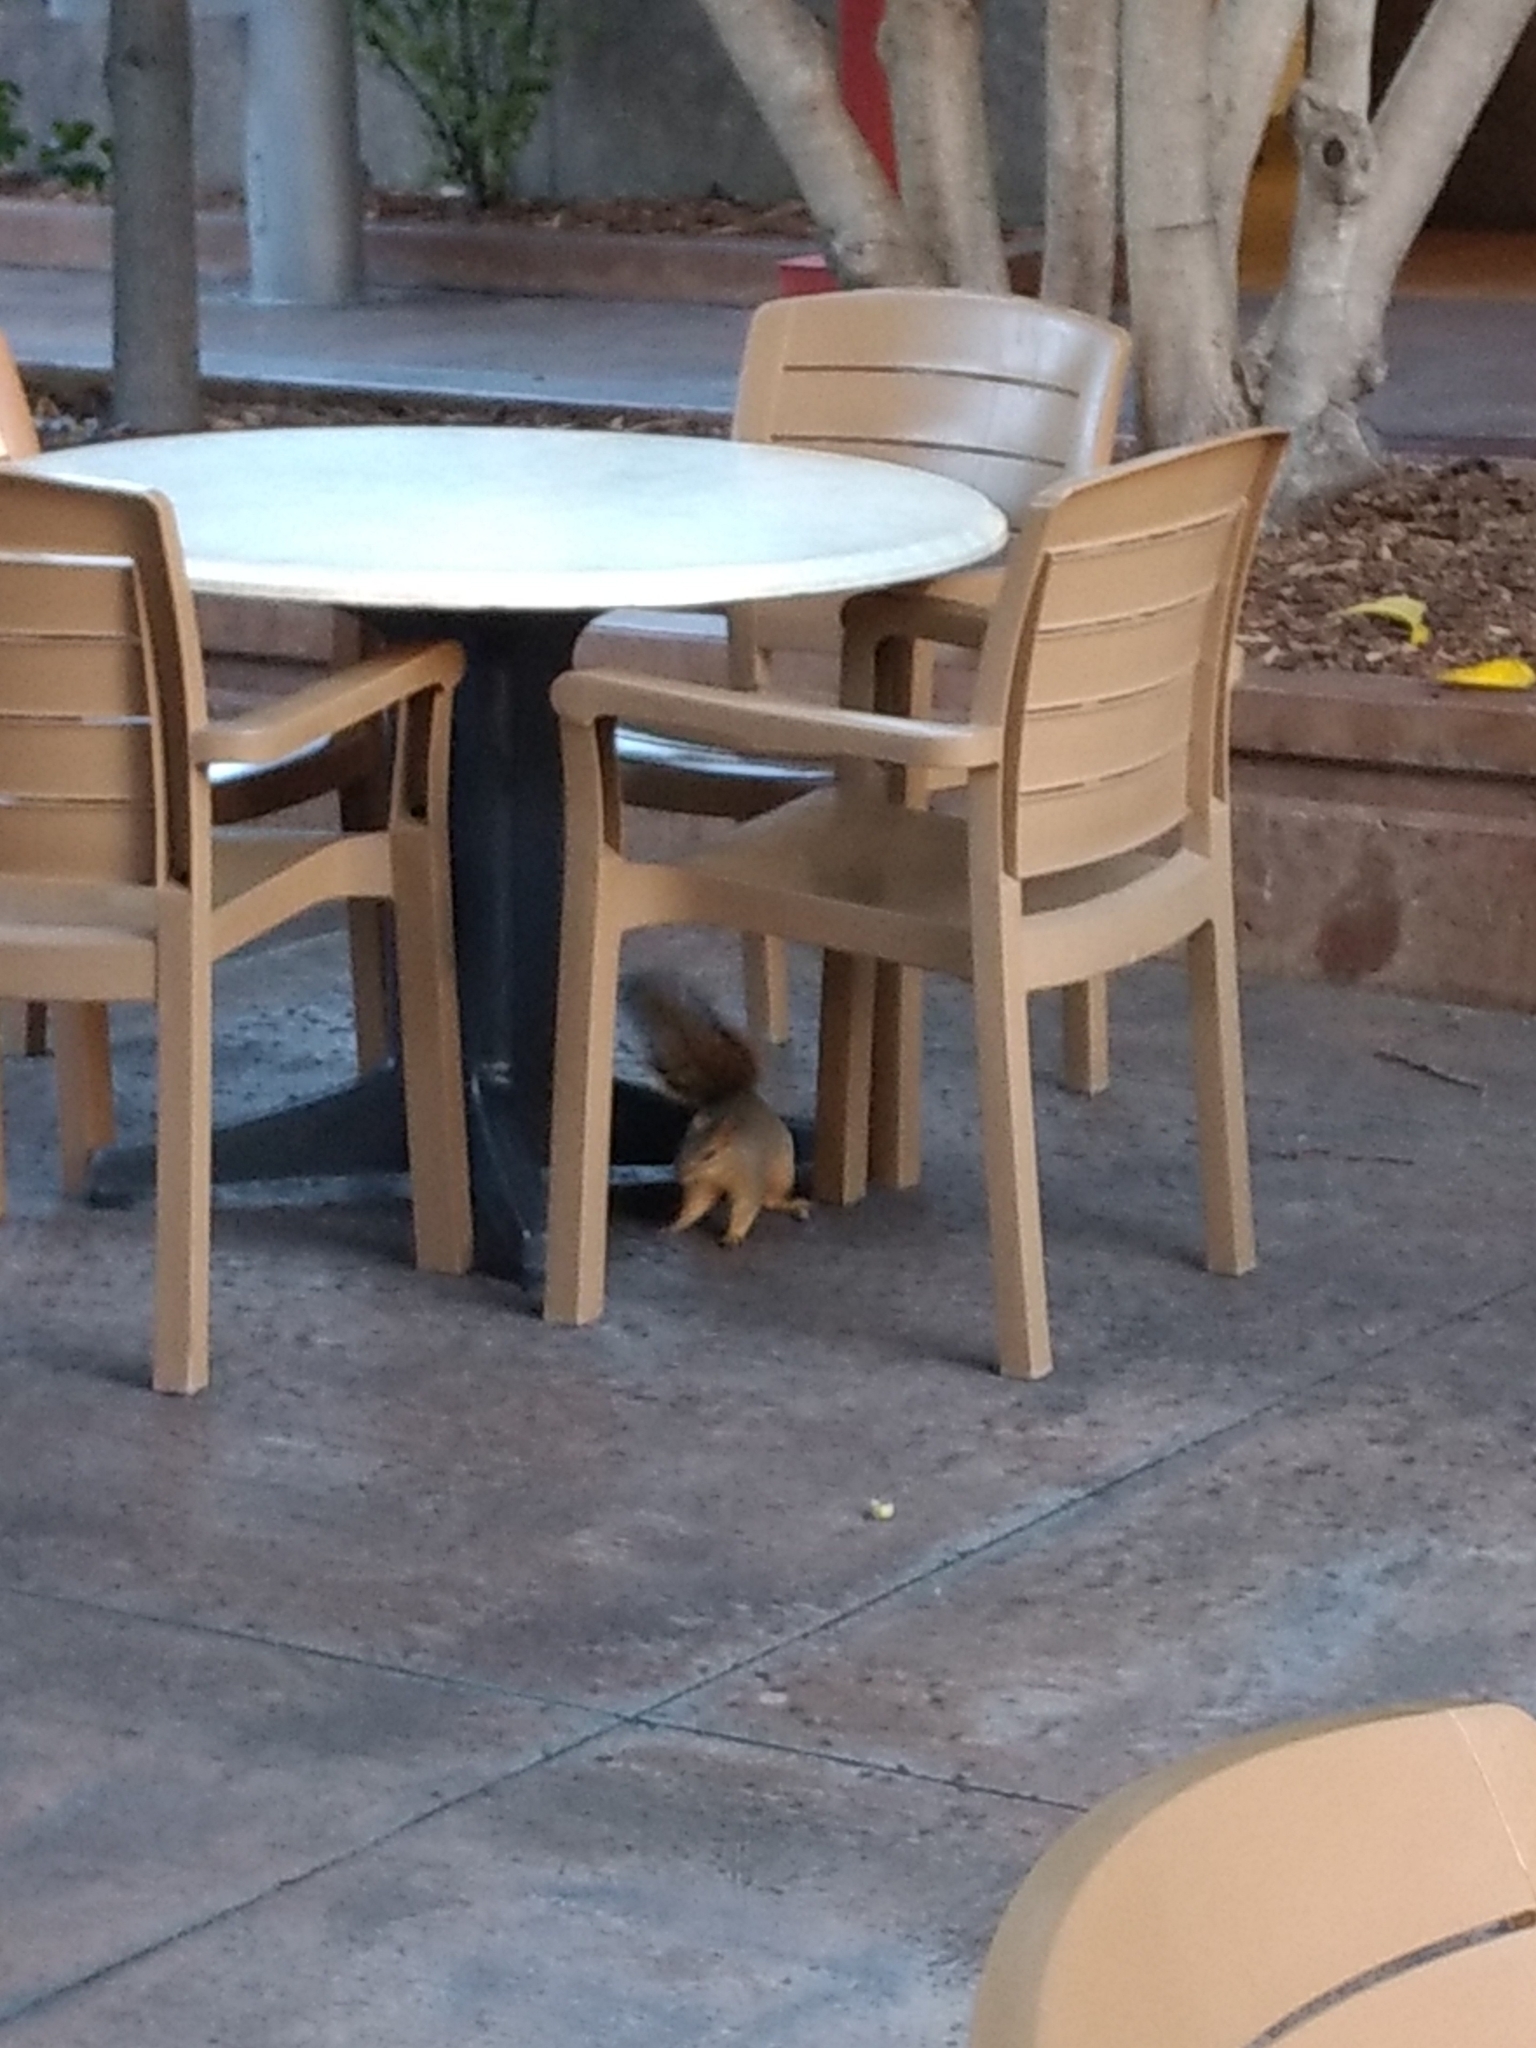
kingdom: Animalia
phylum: Chordata
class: Mammalia
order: Rodentia
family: Sciuridae
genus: Sciurus
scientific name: Sciurus niger
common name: Fox squirrel
